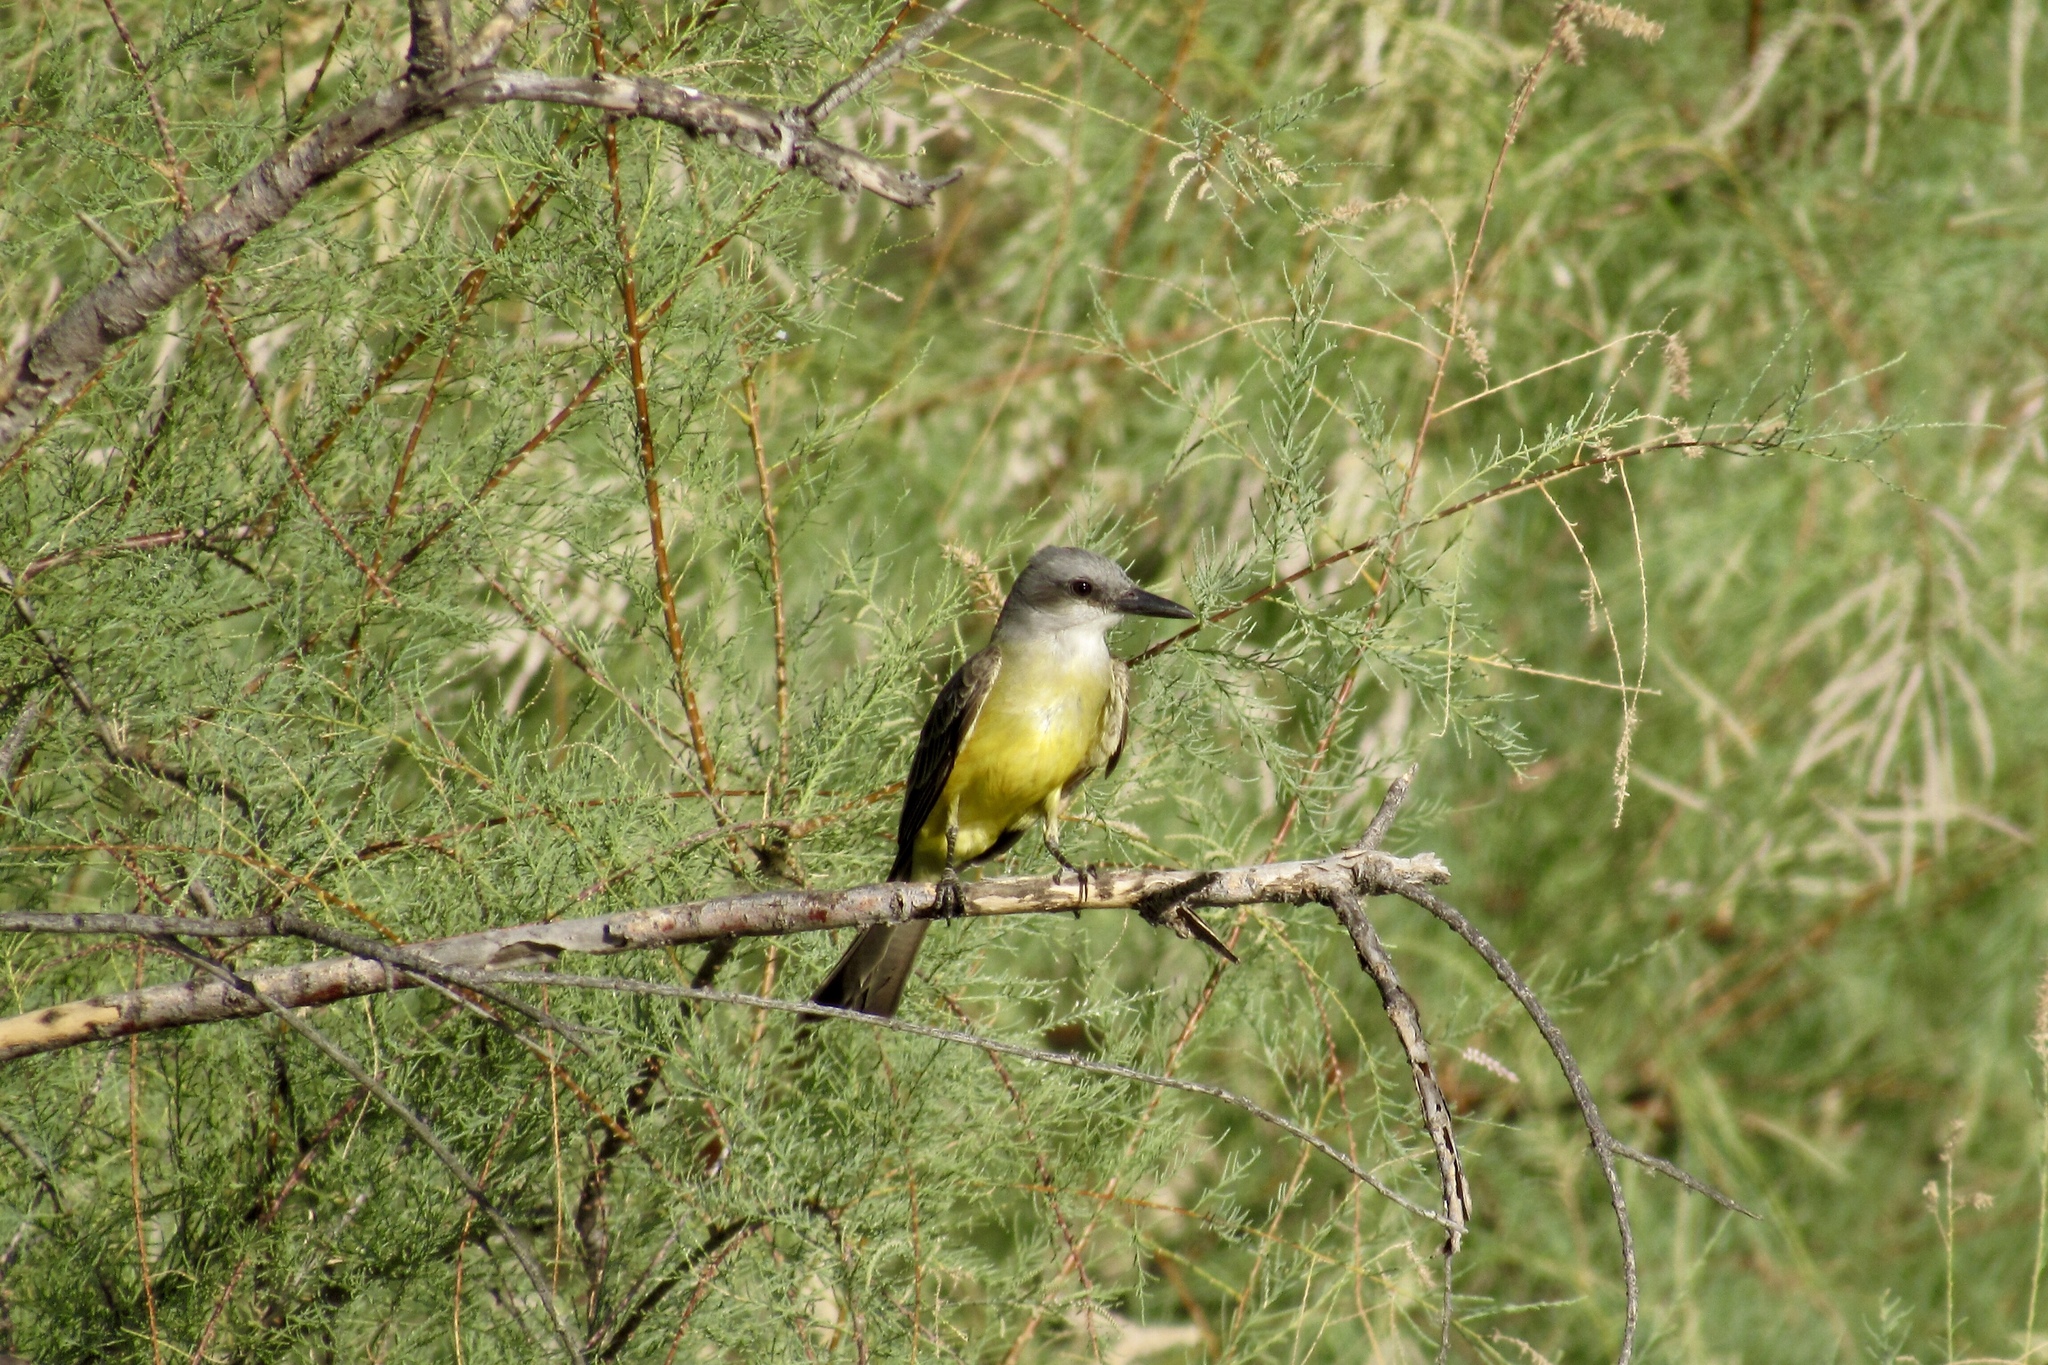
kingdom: Animalia
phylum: Chordata
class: Aves
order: Passeriformes
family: Tyrannidae
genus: Tyrannus
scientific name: Tyrannus melancholicus
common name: Tropical kingbird
